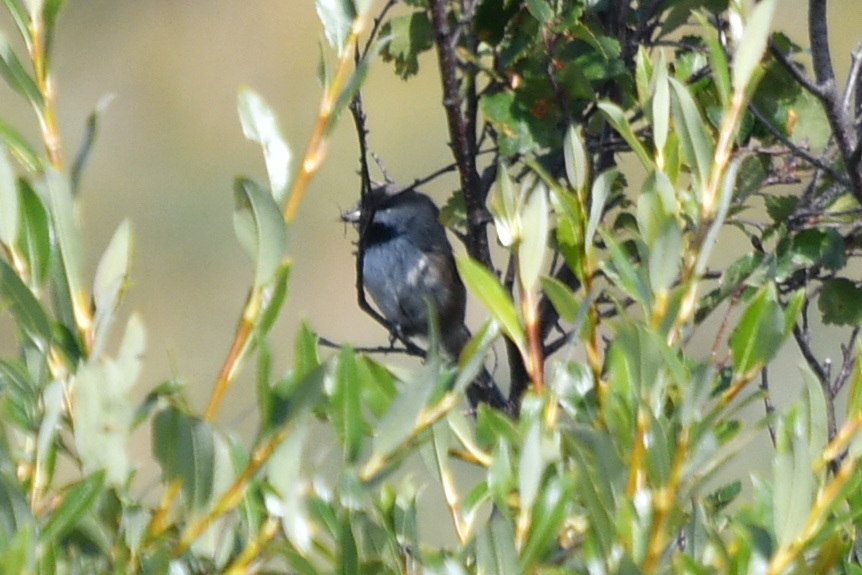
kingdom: Animalia
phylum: Chordata
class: Aves
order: Passeriformes
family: Paridae
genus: Poecile
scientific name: Poecile hudsonicus
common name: Boreal chickadee
